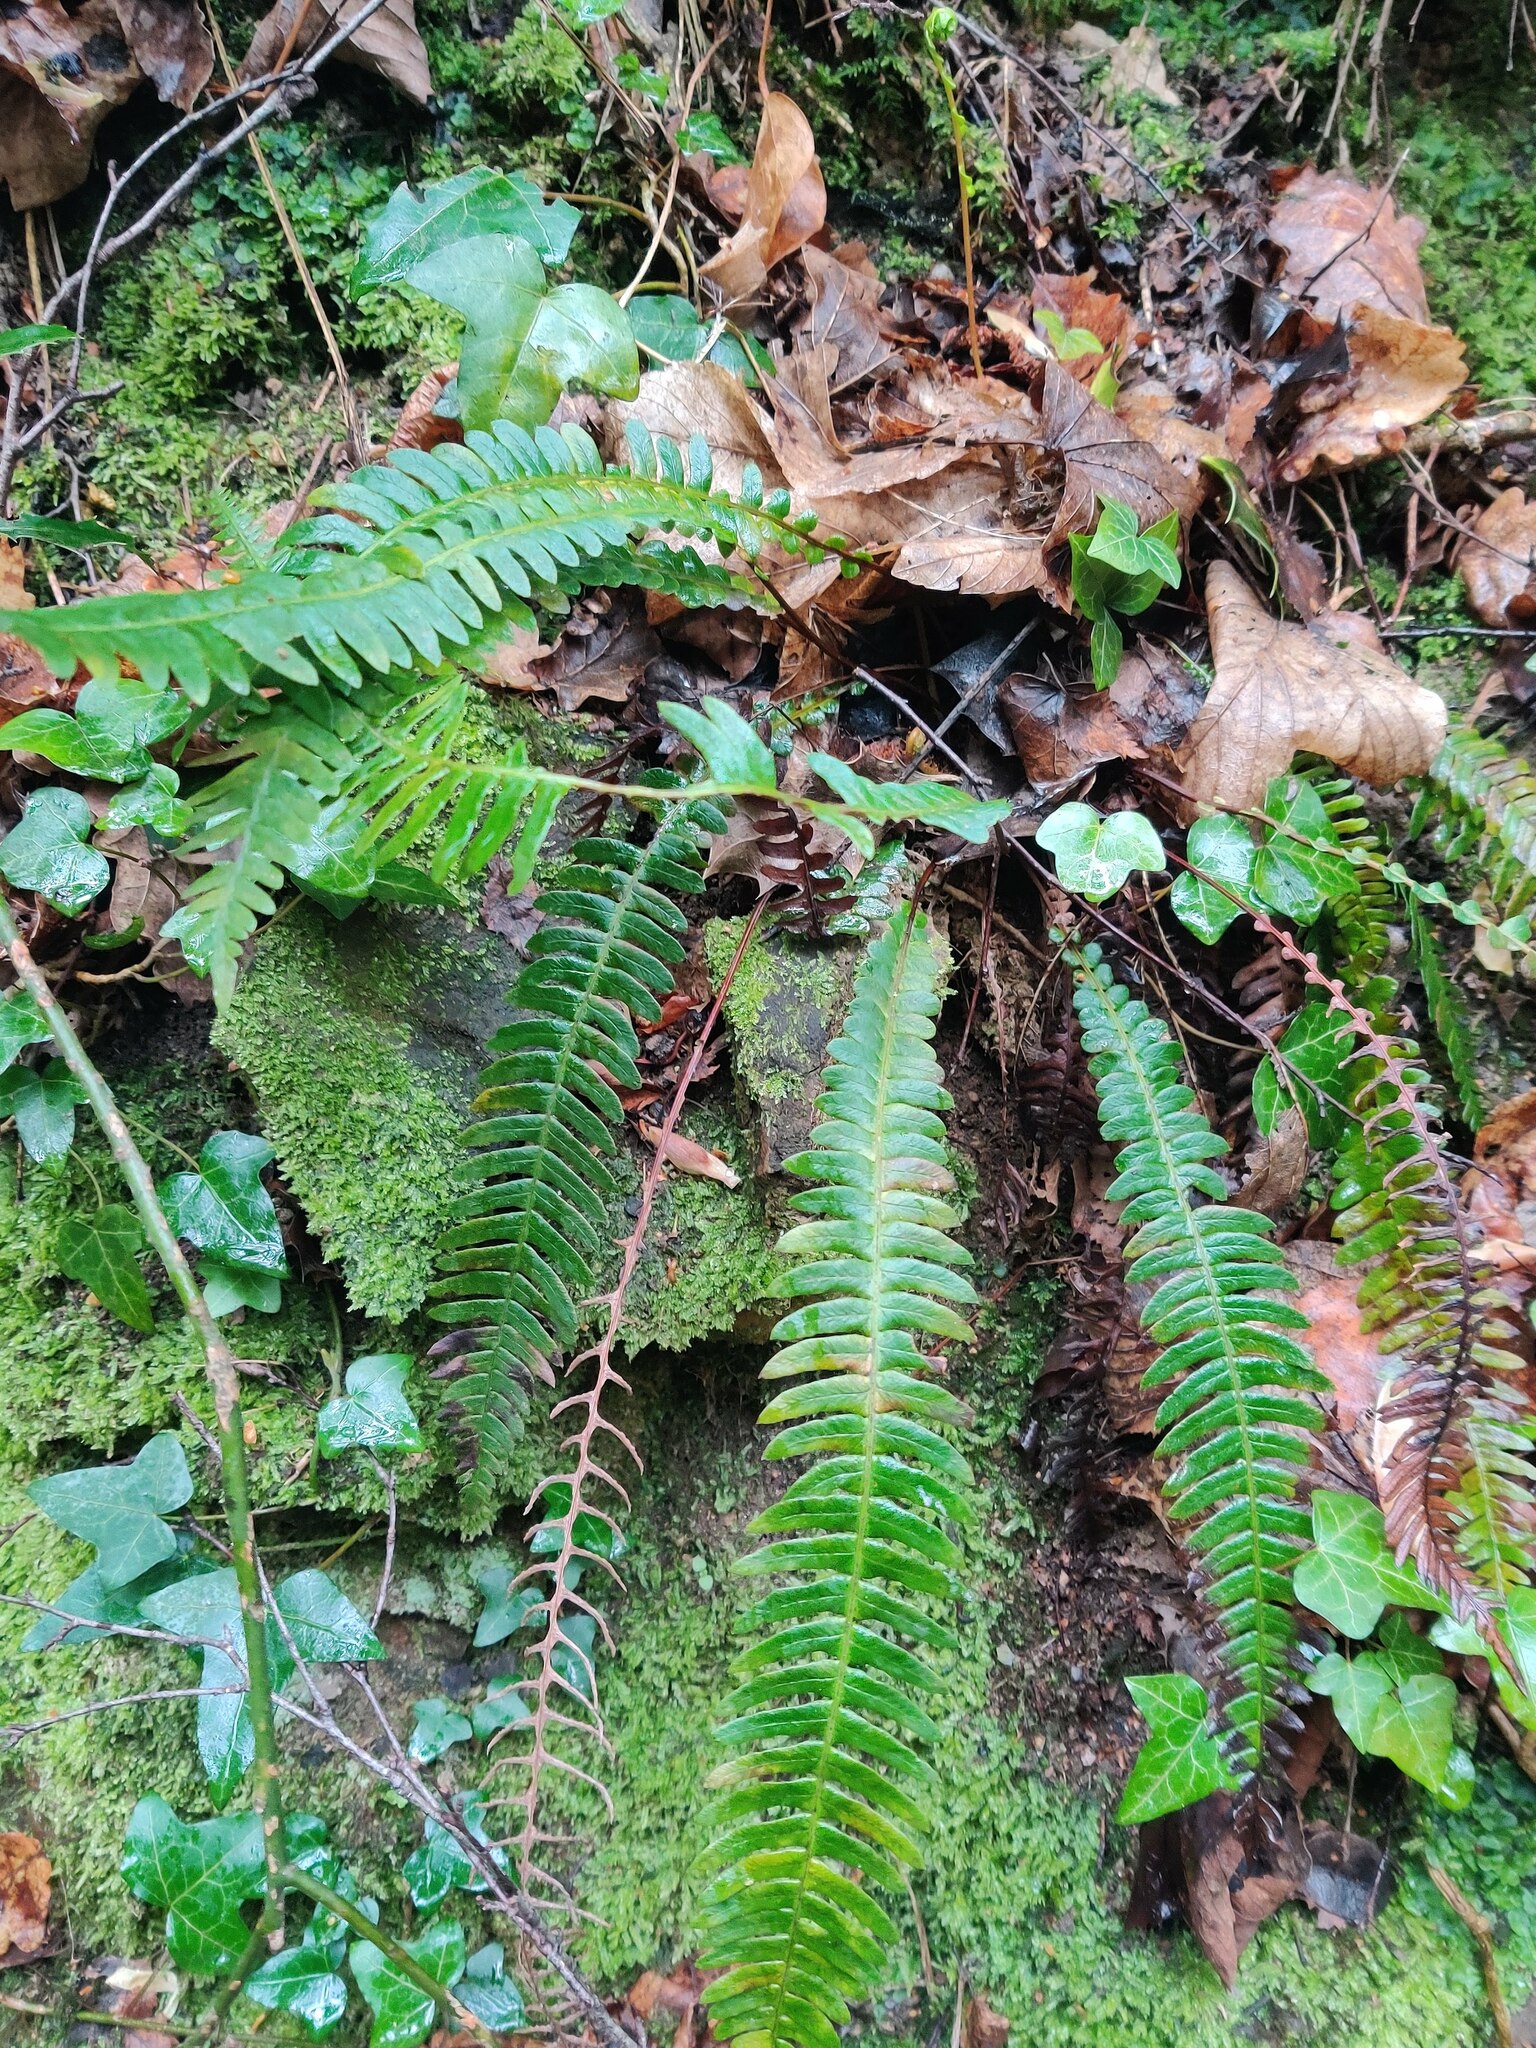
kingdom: Plantae
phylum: Tracheophyta
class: Polypodiopsida
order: Polypodiales
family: Blechnaceae
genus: Struthiopteris
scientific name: Struthiopteris spicant
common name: Deer fern
